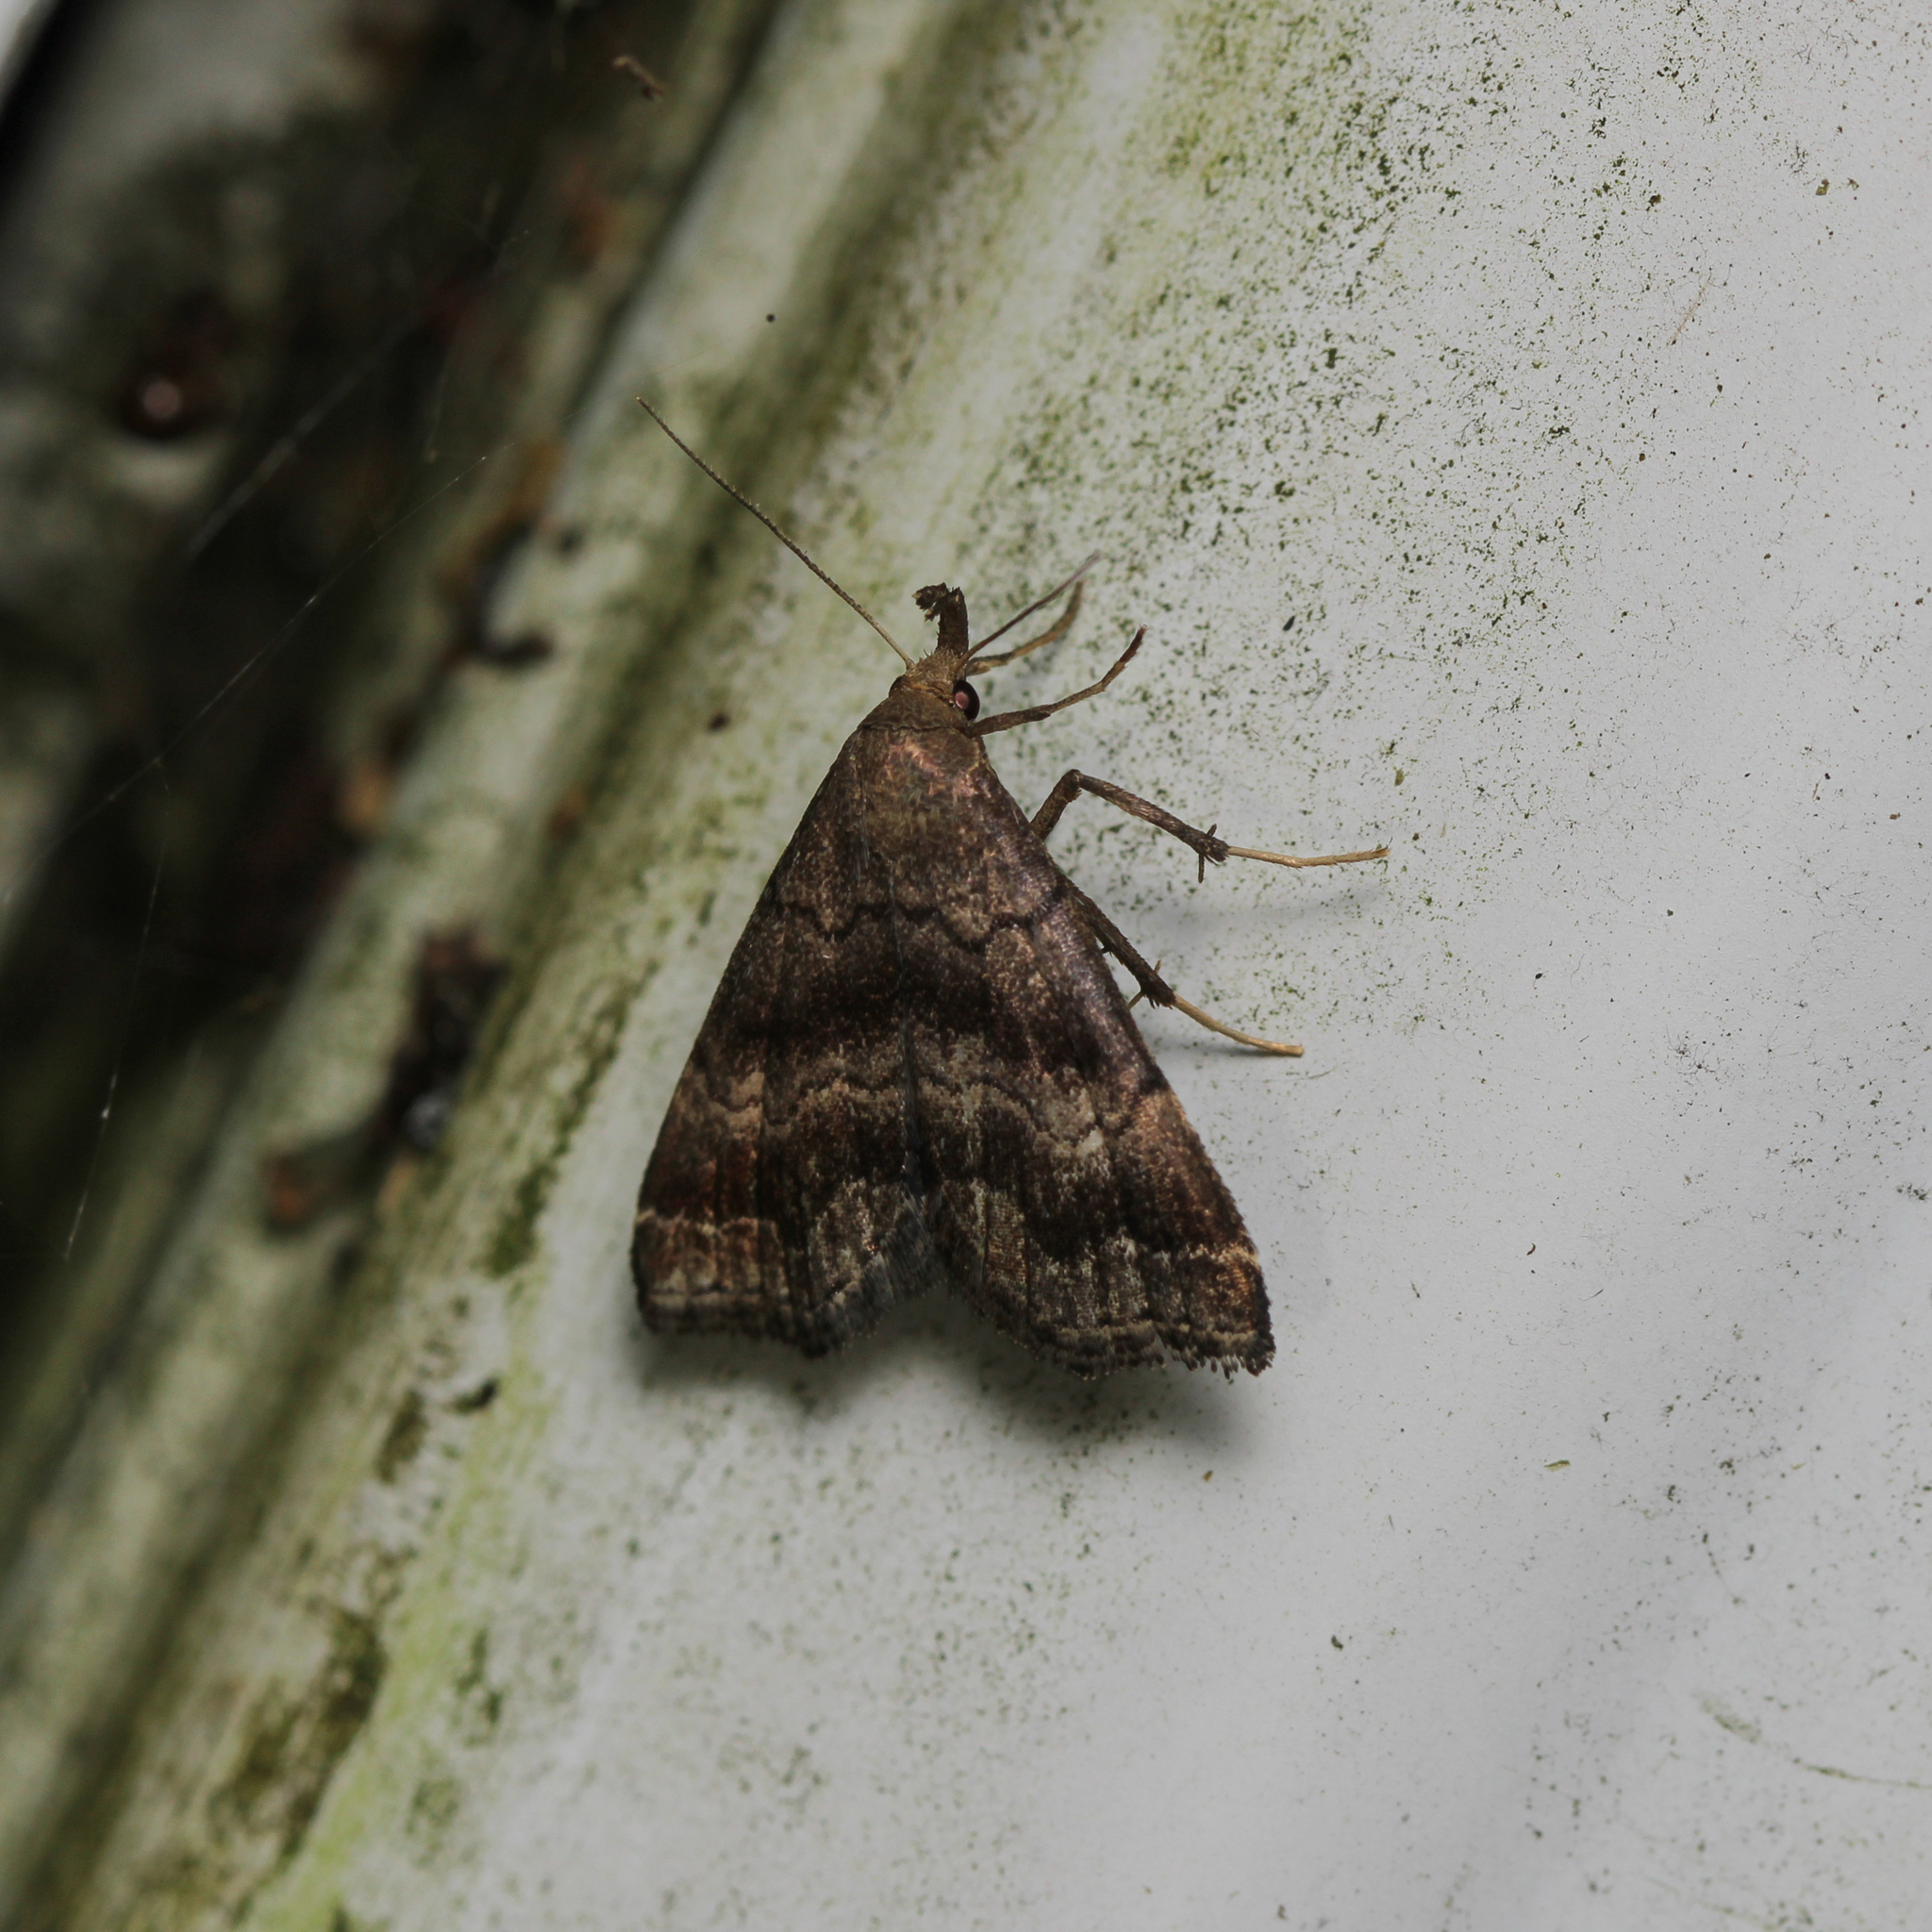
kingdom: Animalia
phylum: Arthropoda
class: Insecta
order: Lepidoptera
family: Erebidae
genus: Phalaenostola
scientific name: Phalaenostola larentioides
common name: Black-banded owlet
